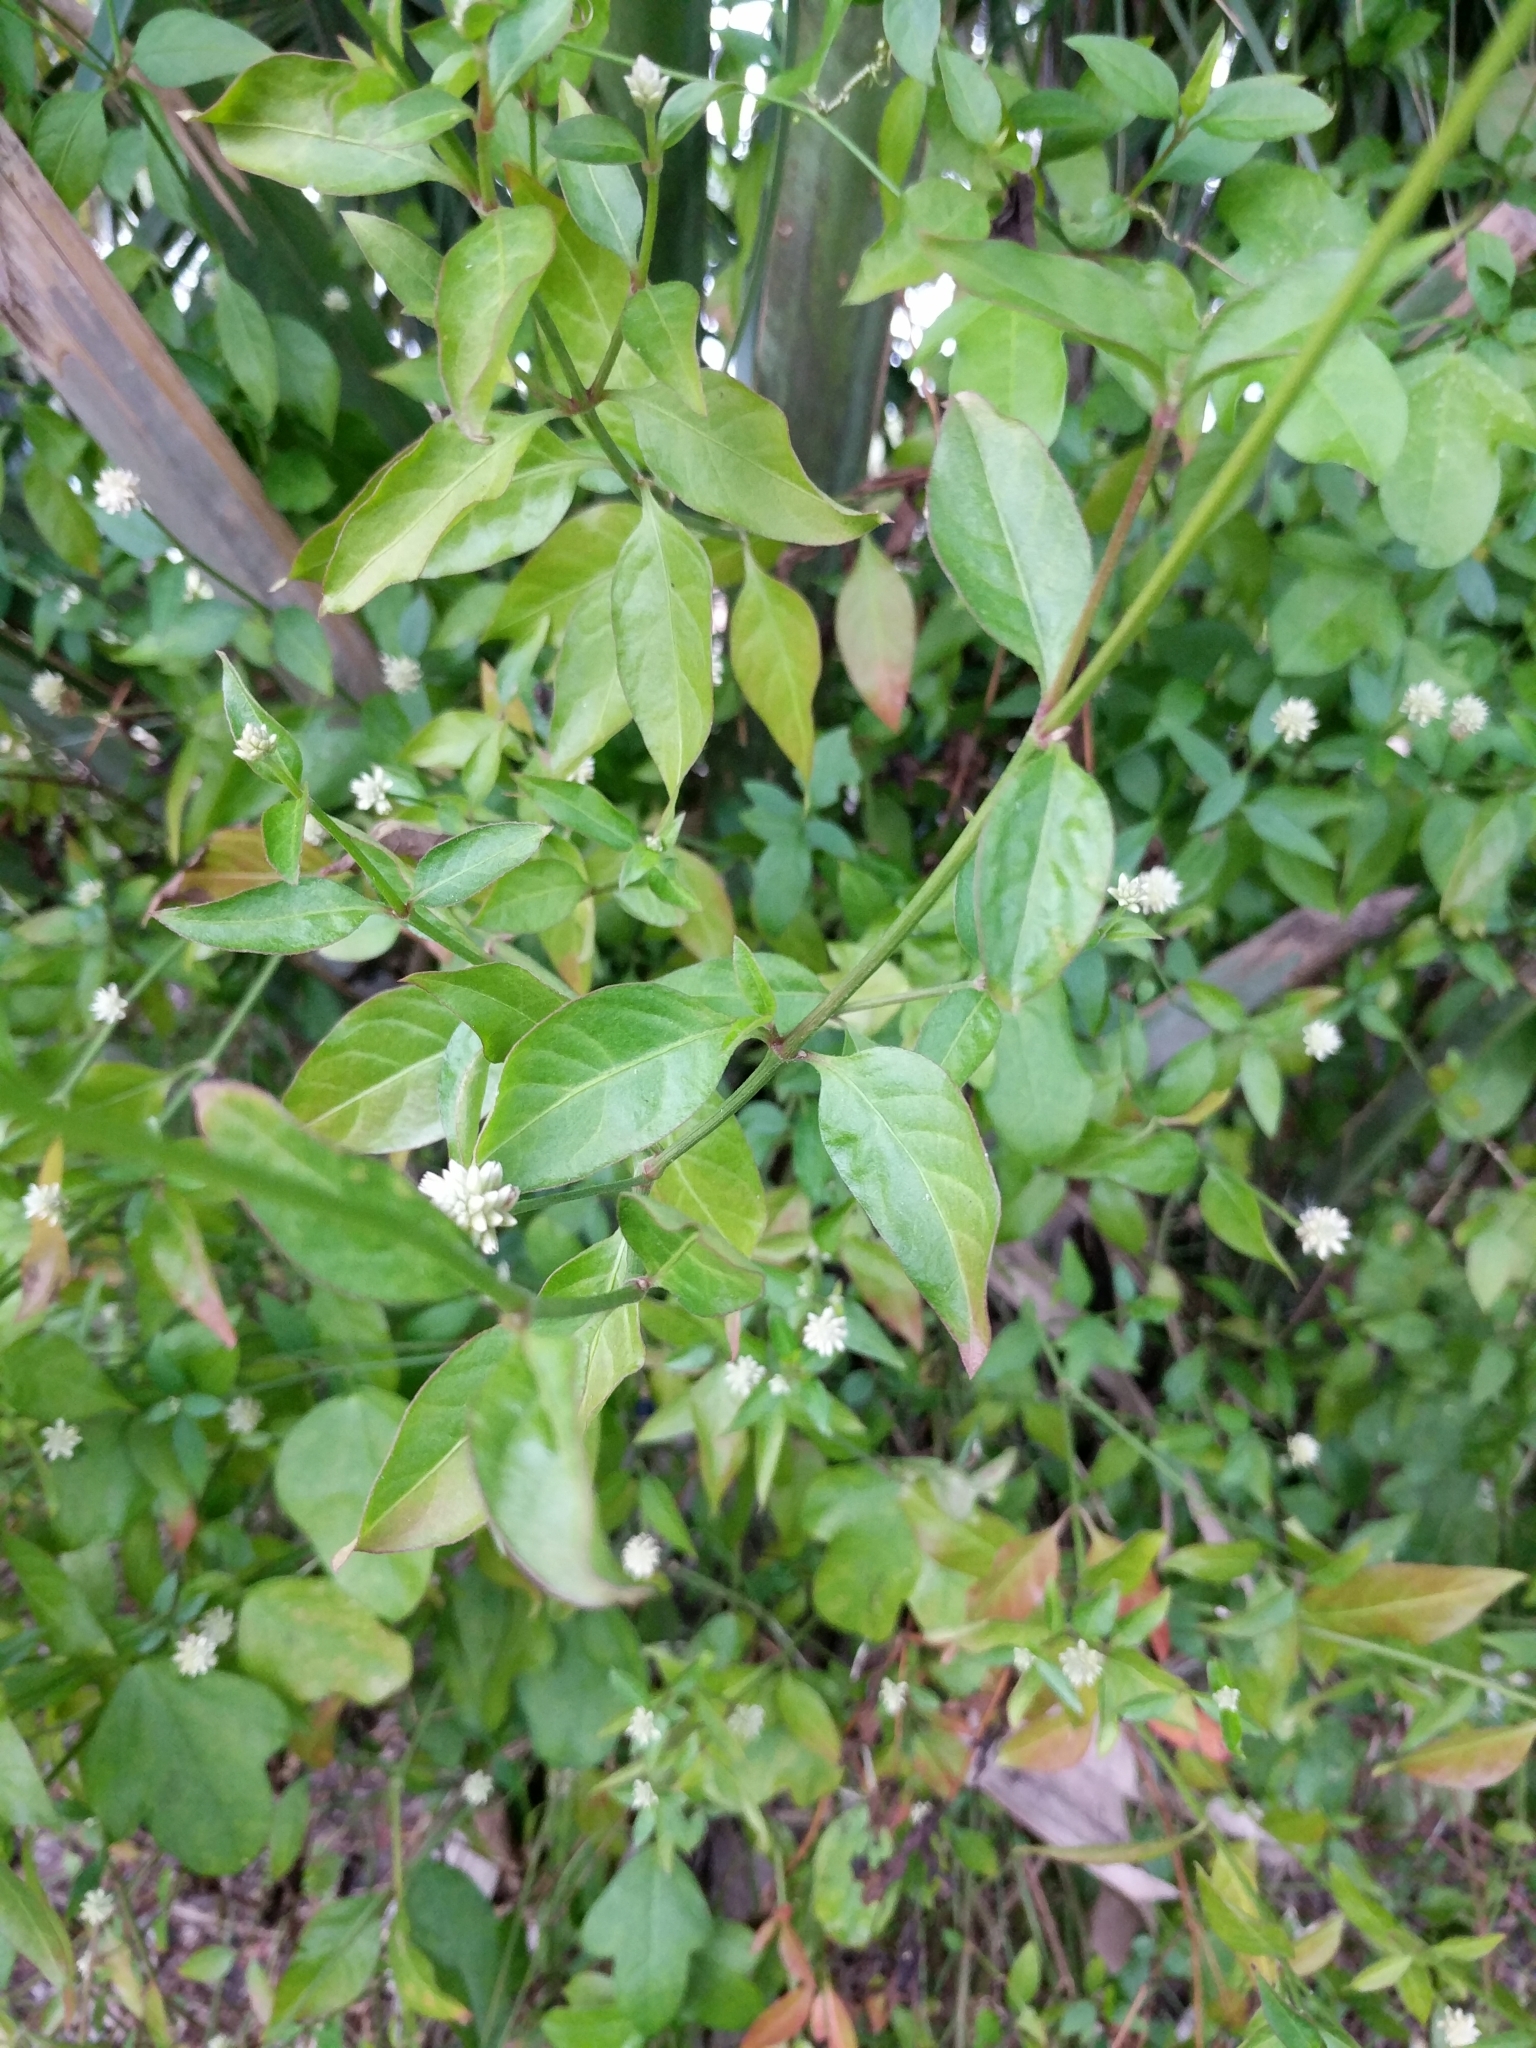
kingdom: Plantae
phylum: Tracheophyta
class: Magnoliopsida
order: Caryophyllales
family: Amaranthaceae
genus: Alternanthera
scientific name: Alternanthera flavescens
